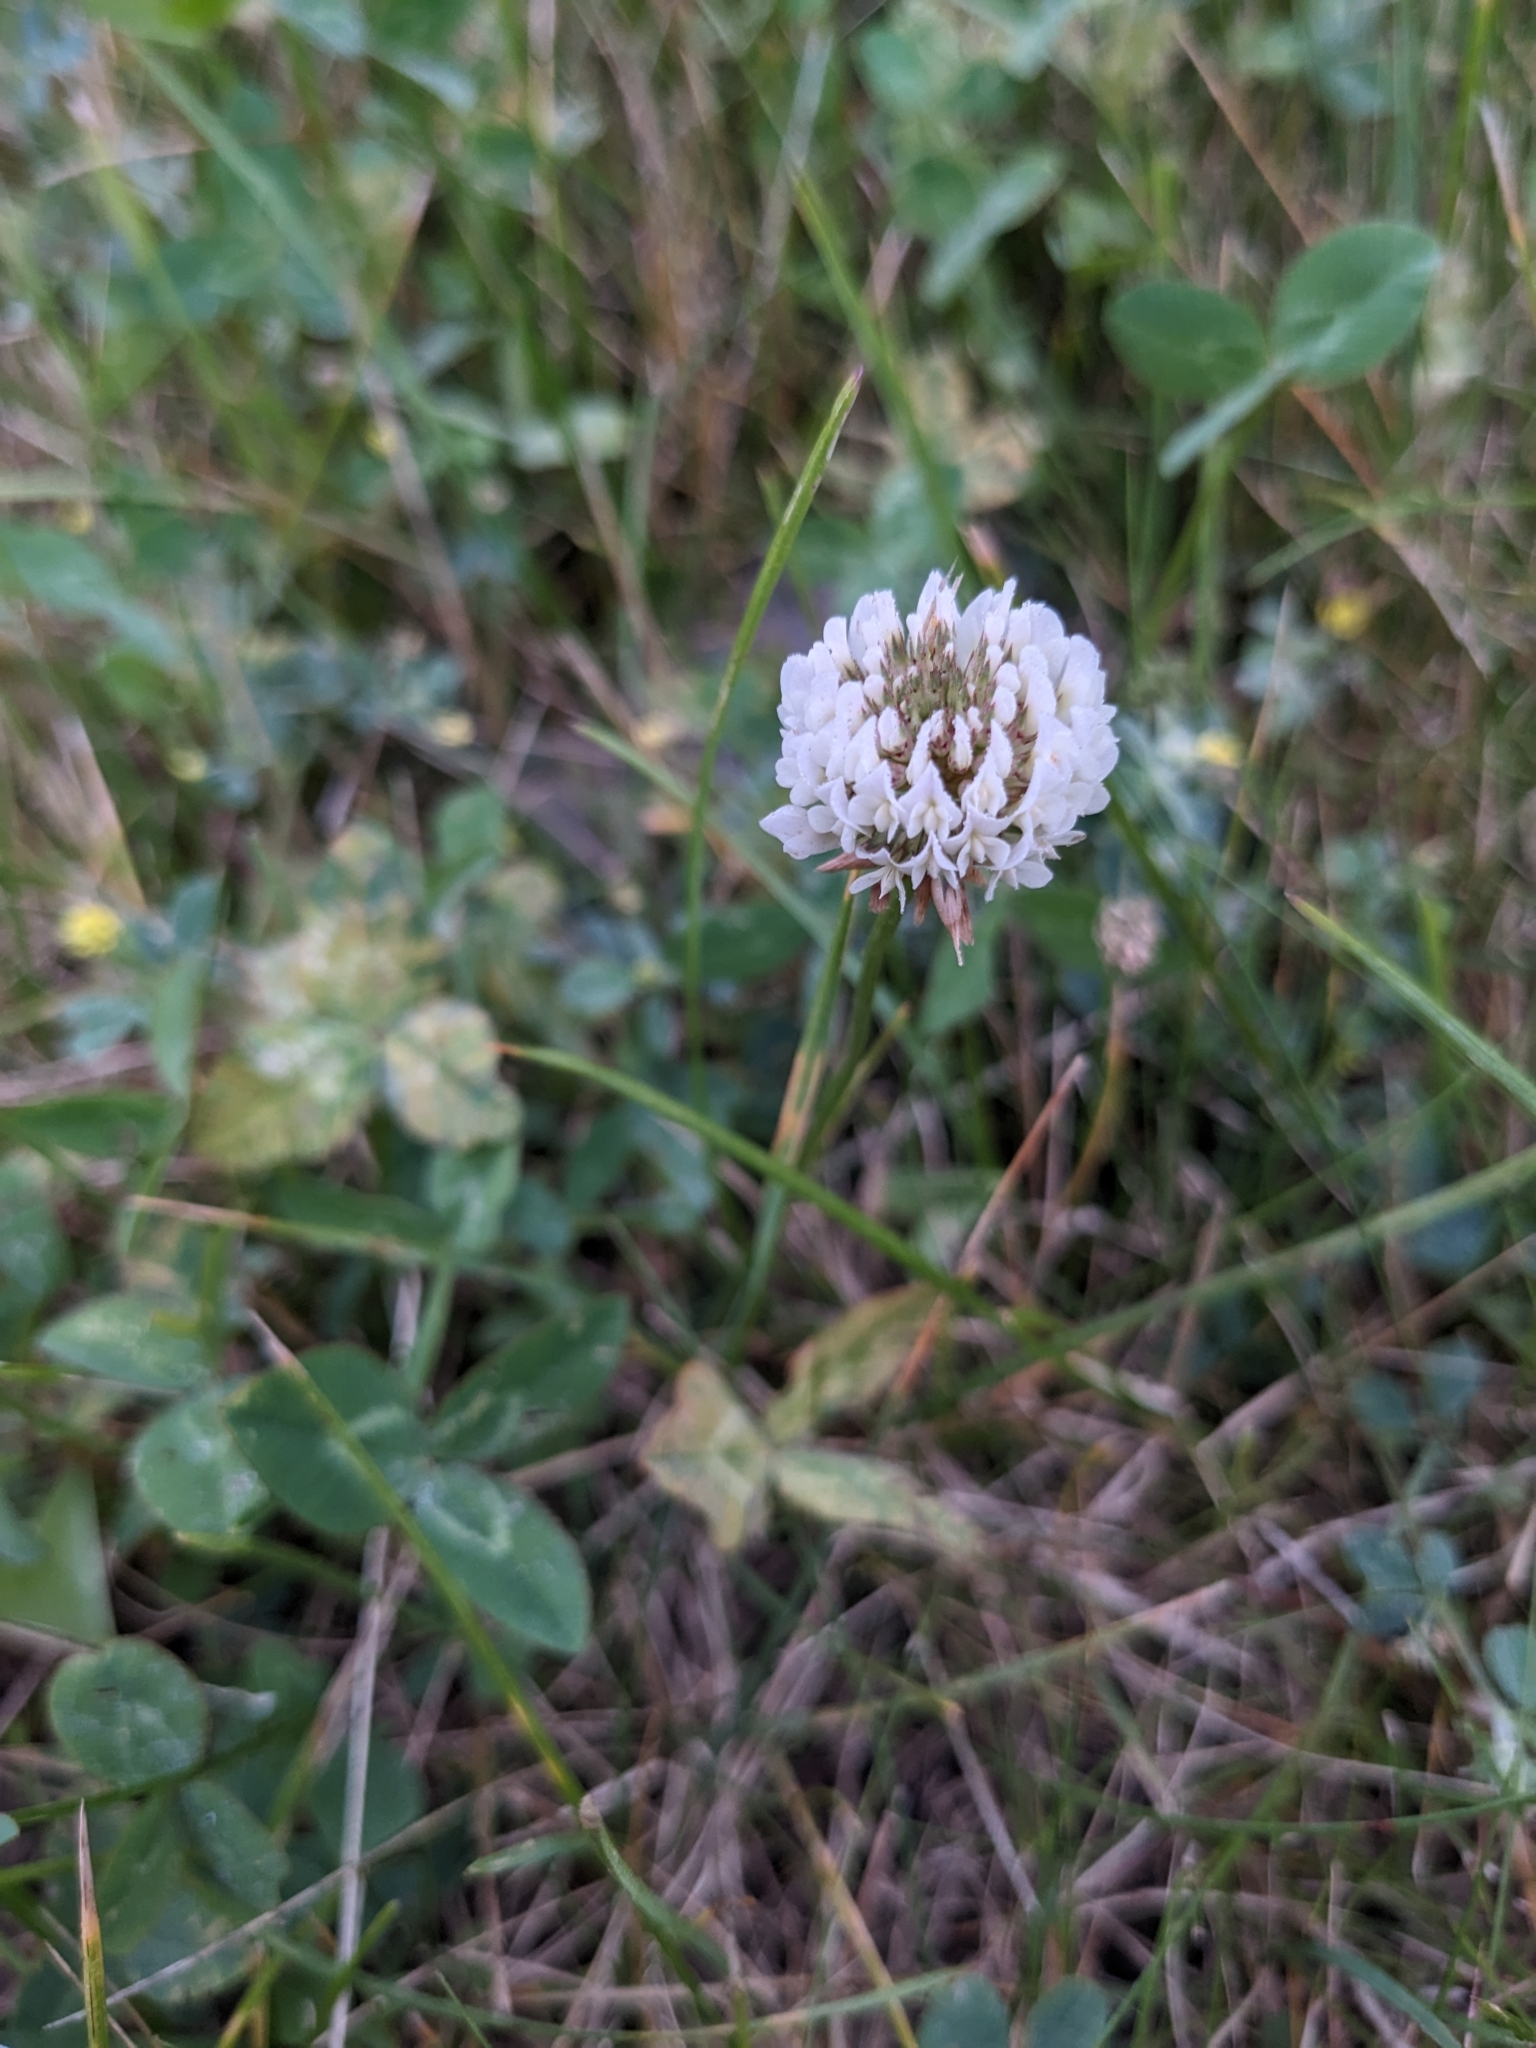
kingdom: Plantae
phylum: Tracheophyta
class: Magnoliopsida
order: Fabales
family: Fabaceae
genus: Trifolium
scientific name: Trifolium repens
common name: White clover
